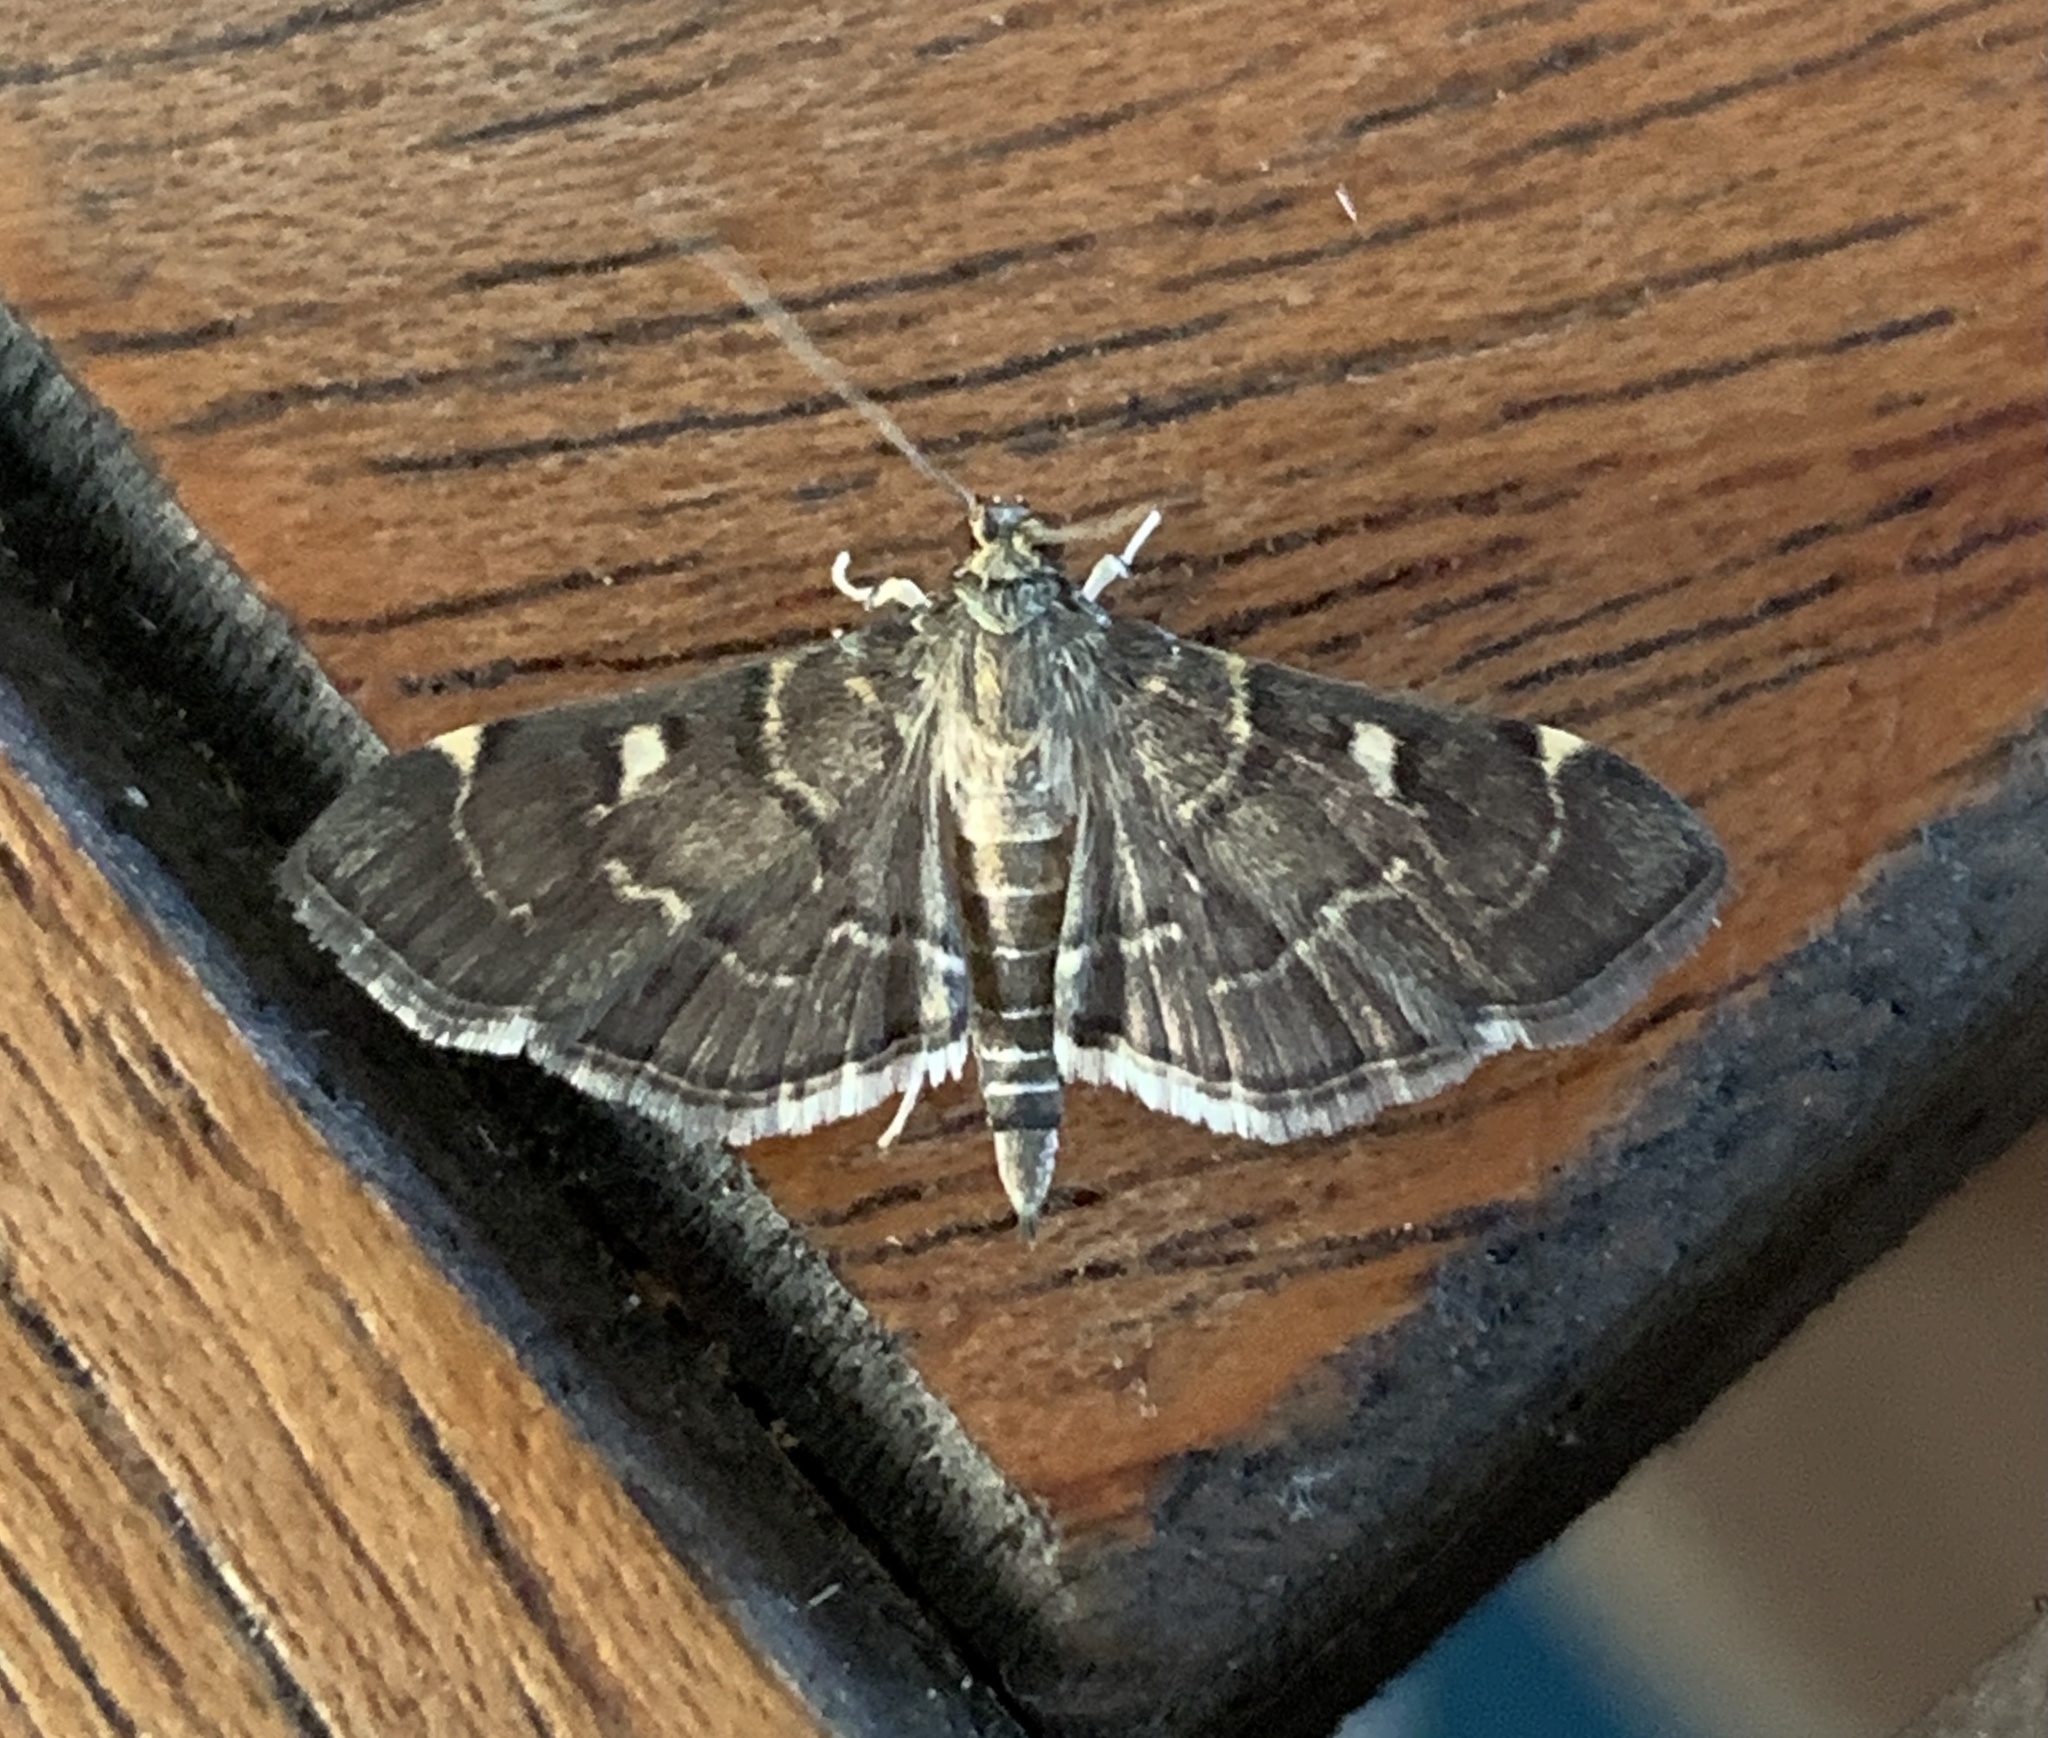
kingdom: Animalia
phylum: Arthropoda
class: Insecta
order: Lepidoptera
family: Crambidae
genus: Cryptobotys
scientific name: Cryptobotys zoilusalis
